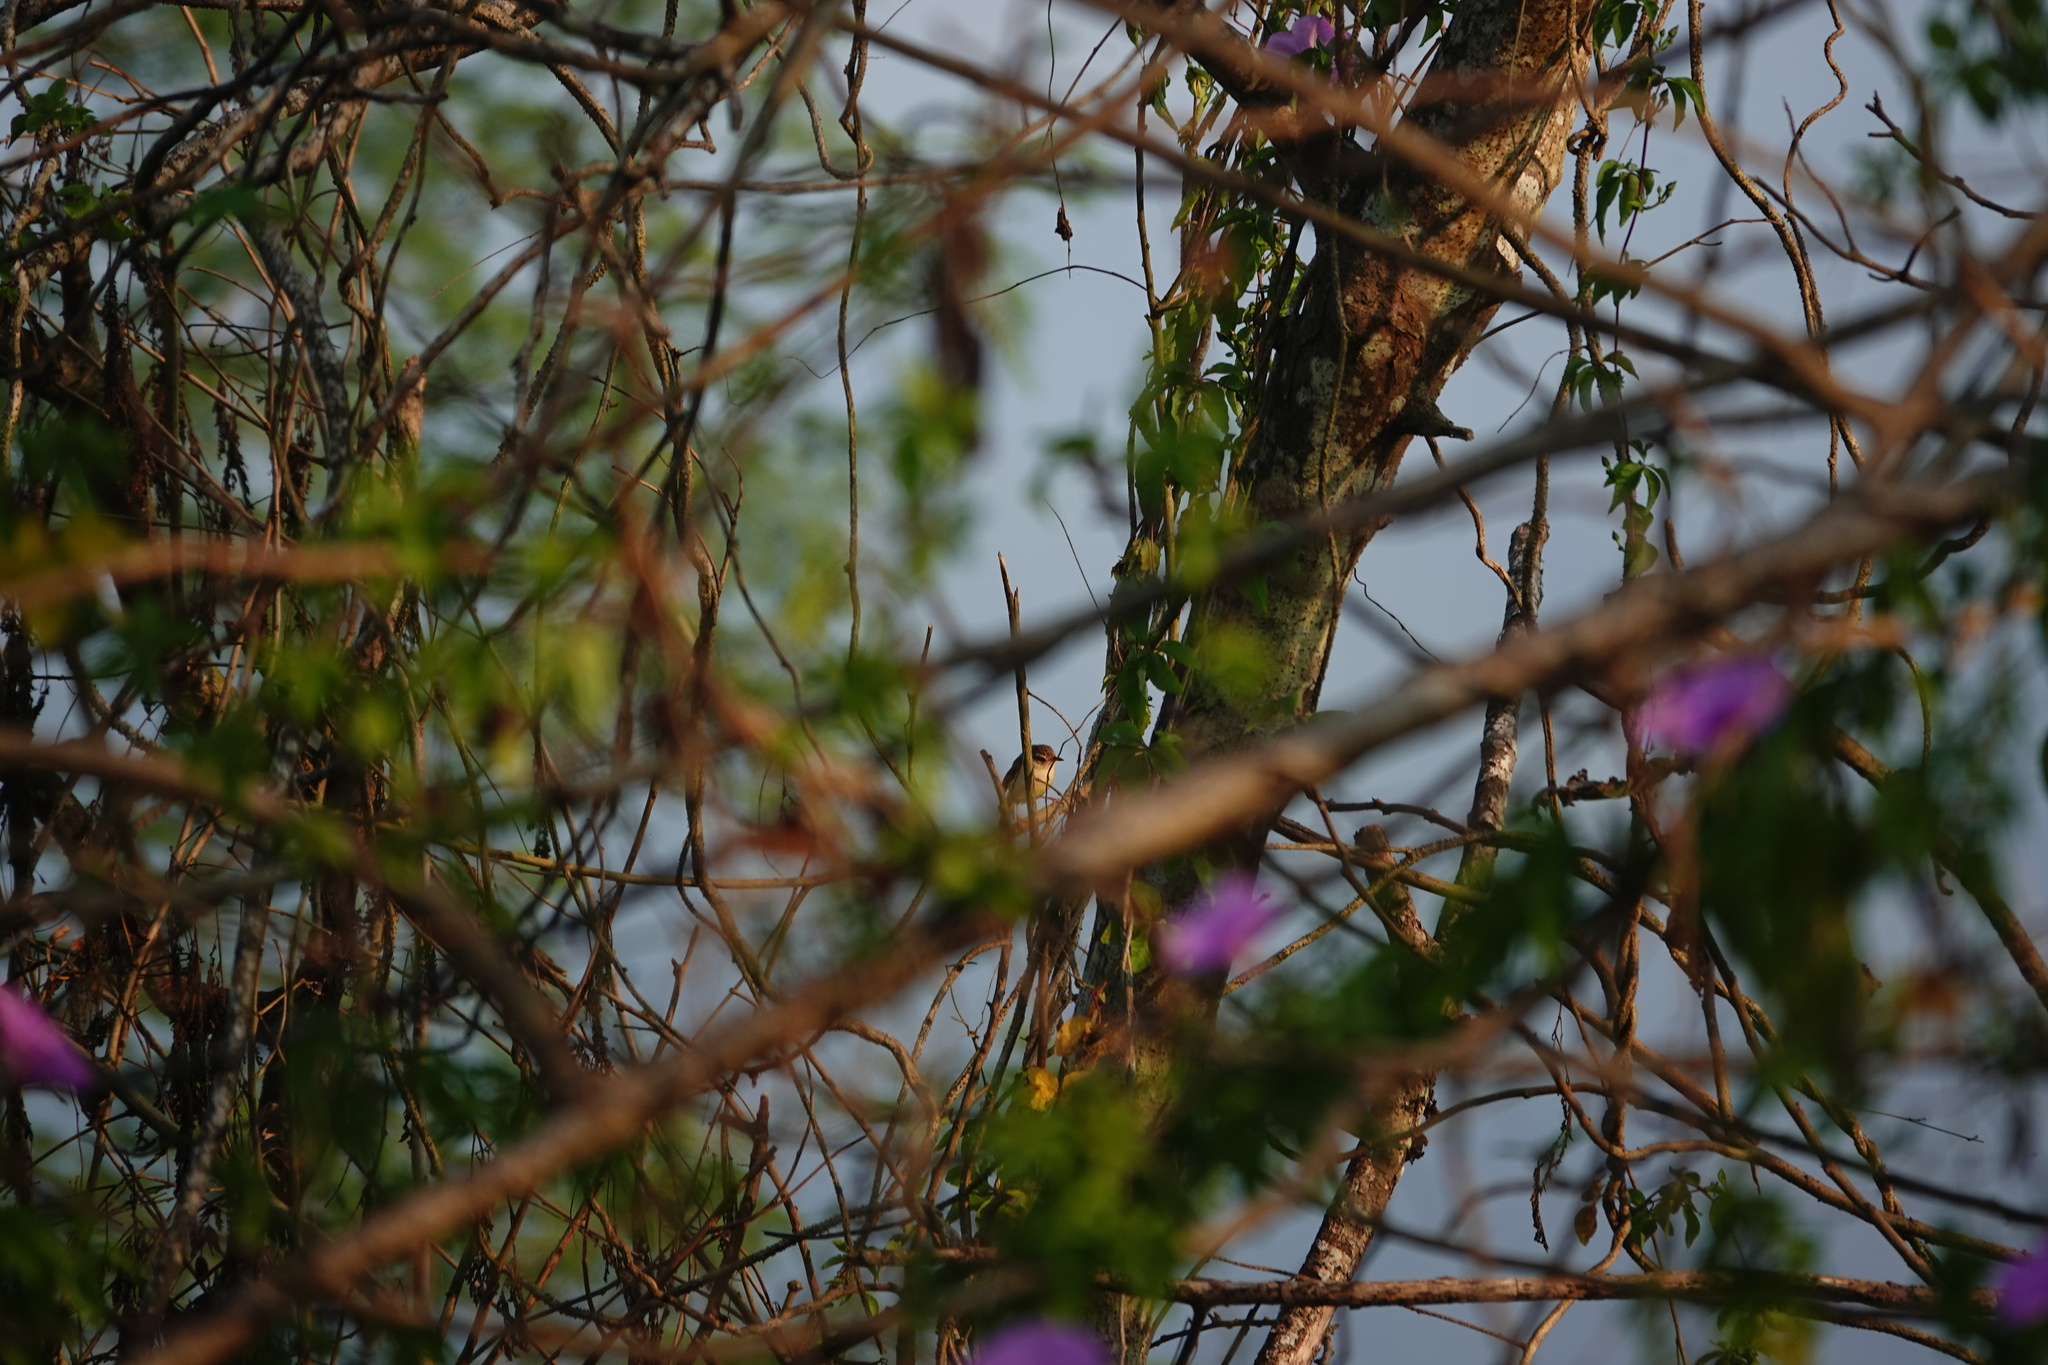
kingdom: Animalia
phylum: Chordata
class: Aves
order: Passeriformes
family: Cisticolidae
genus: Prinia
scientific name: Prinia inornata
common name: Plain prinia
